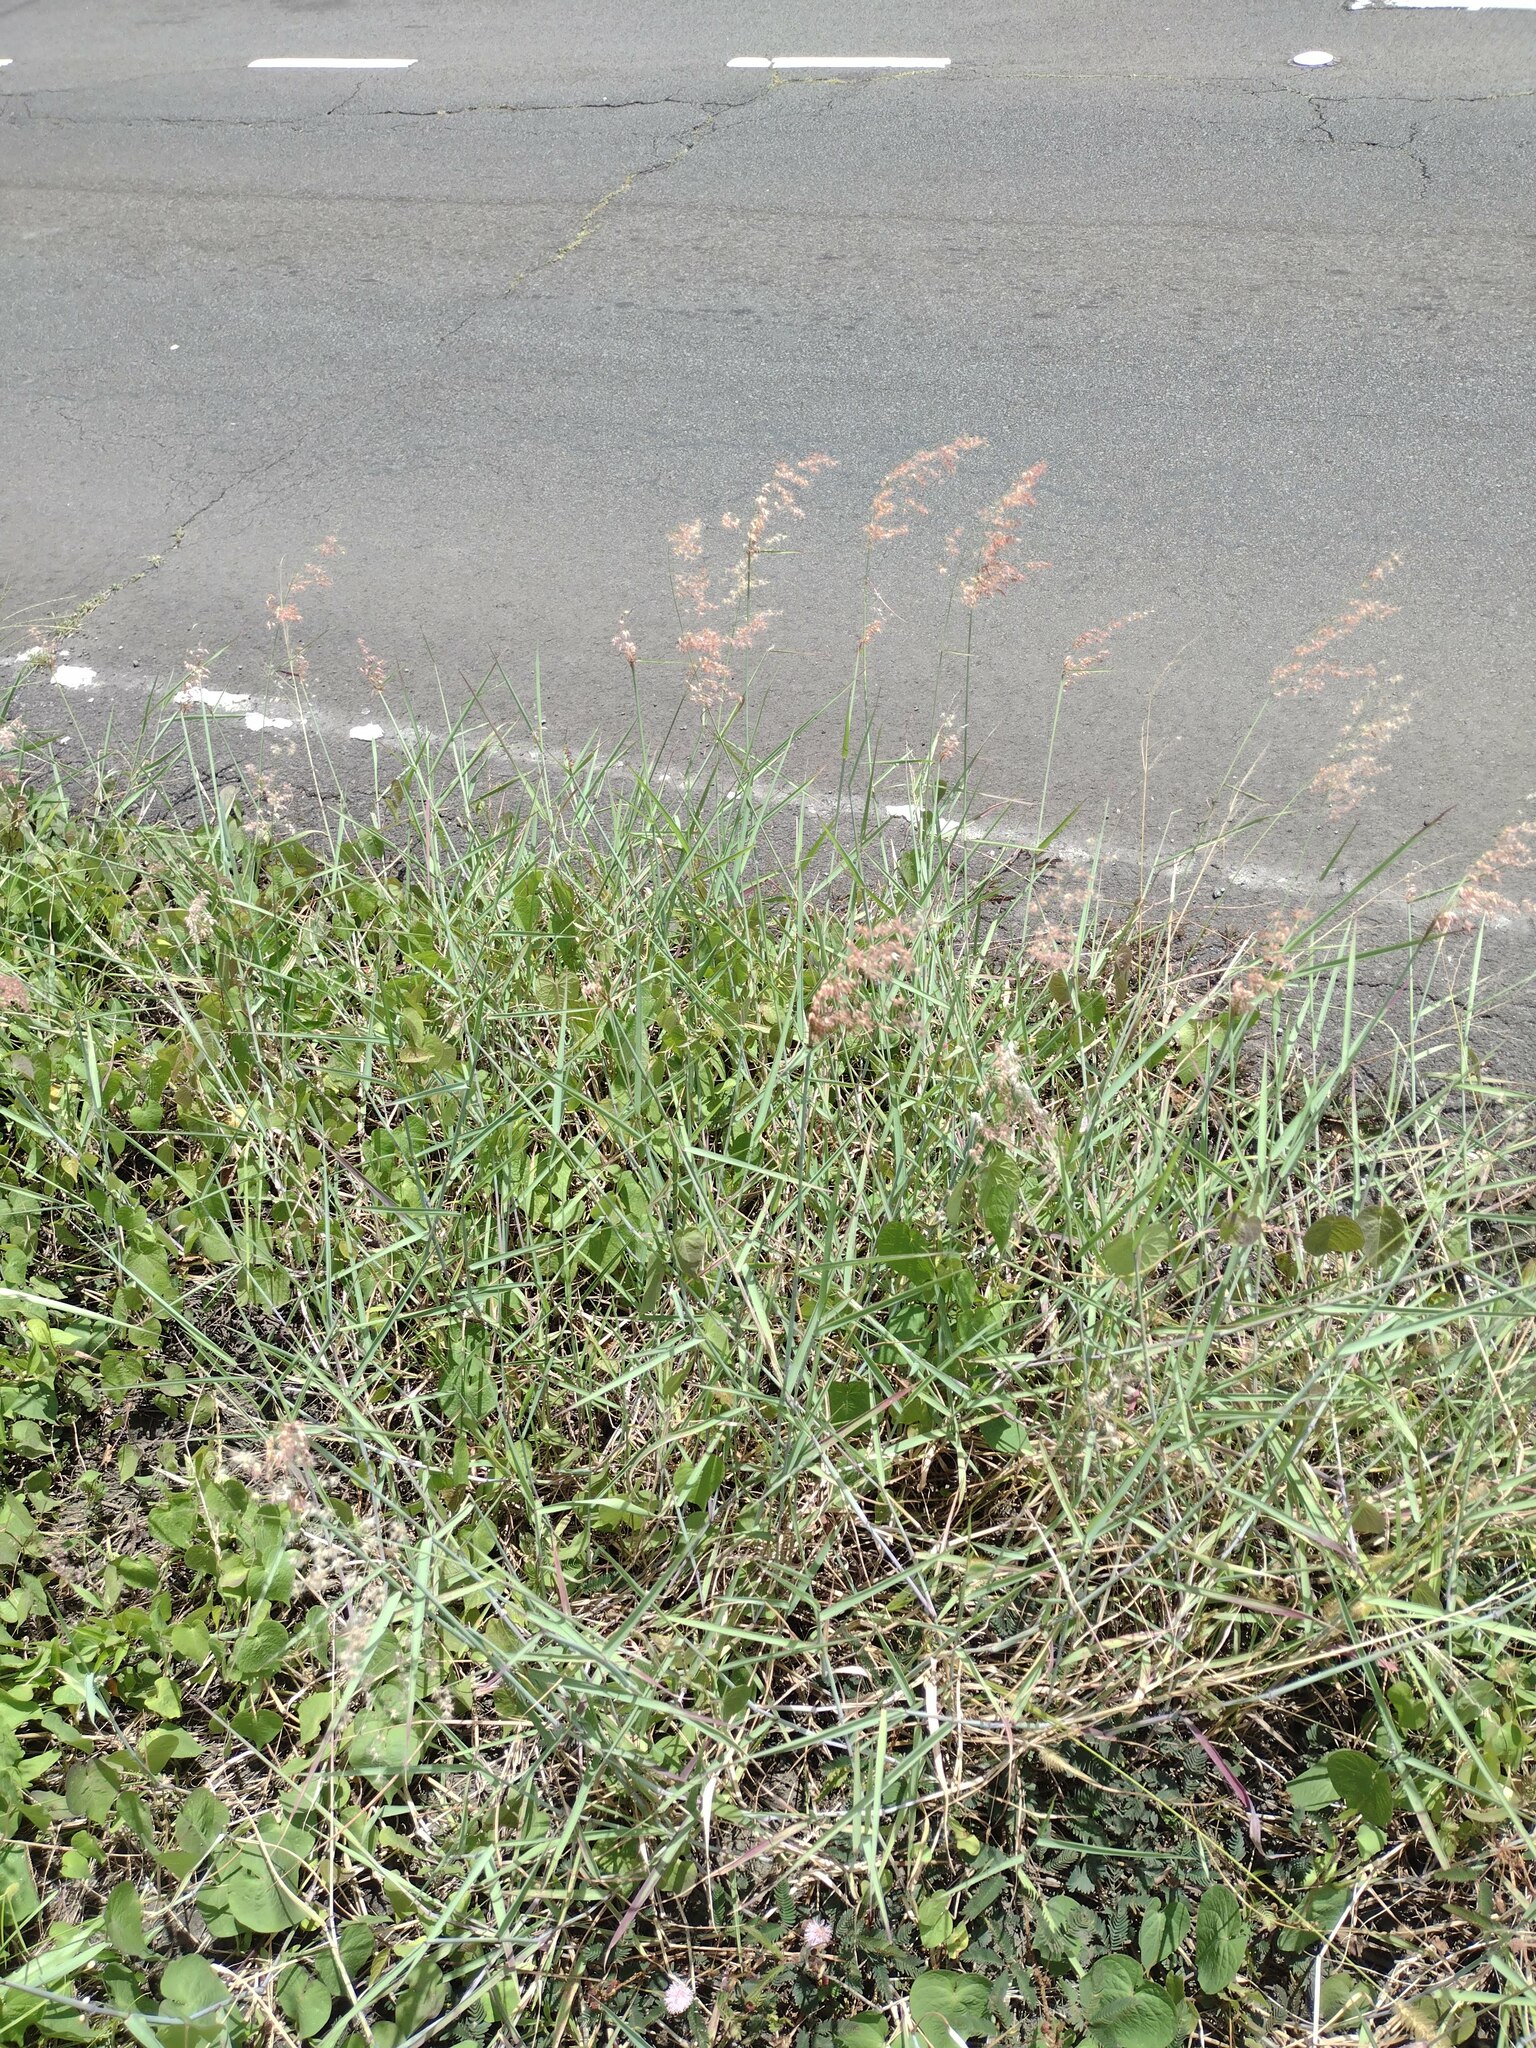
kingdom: Plantae
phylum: Tracheophyta
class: Liliopsida
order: Poales
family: Poaceae
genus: Melinis
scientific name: Melinis repens
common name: Rose natal grass
